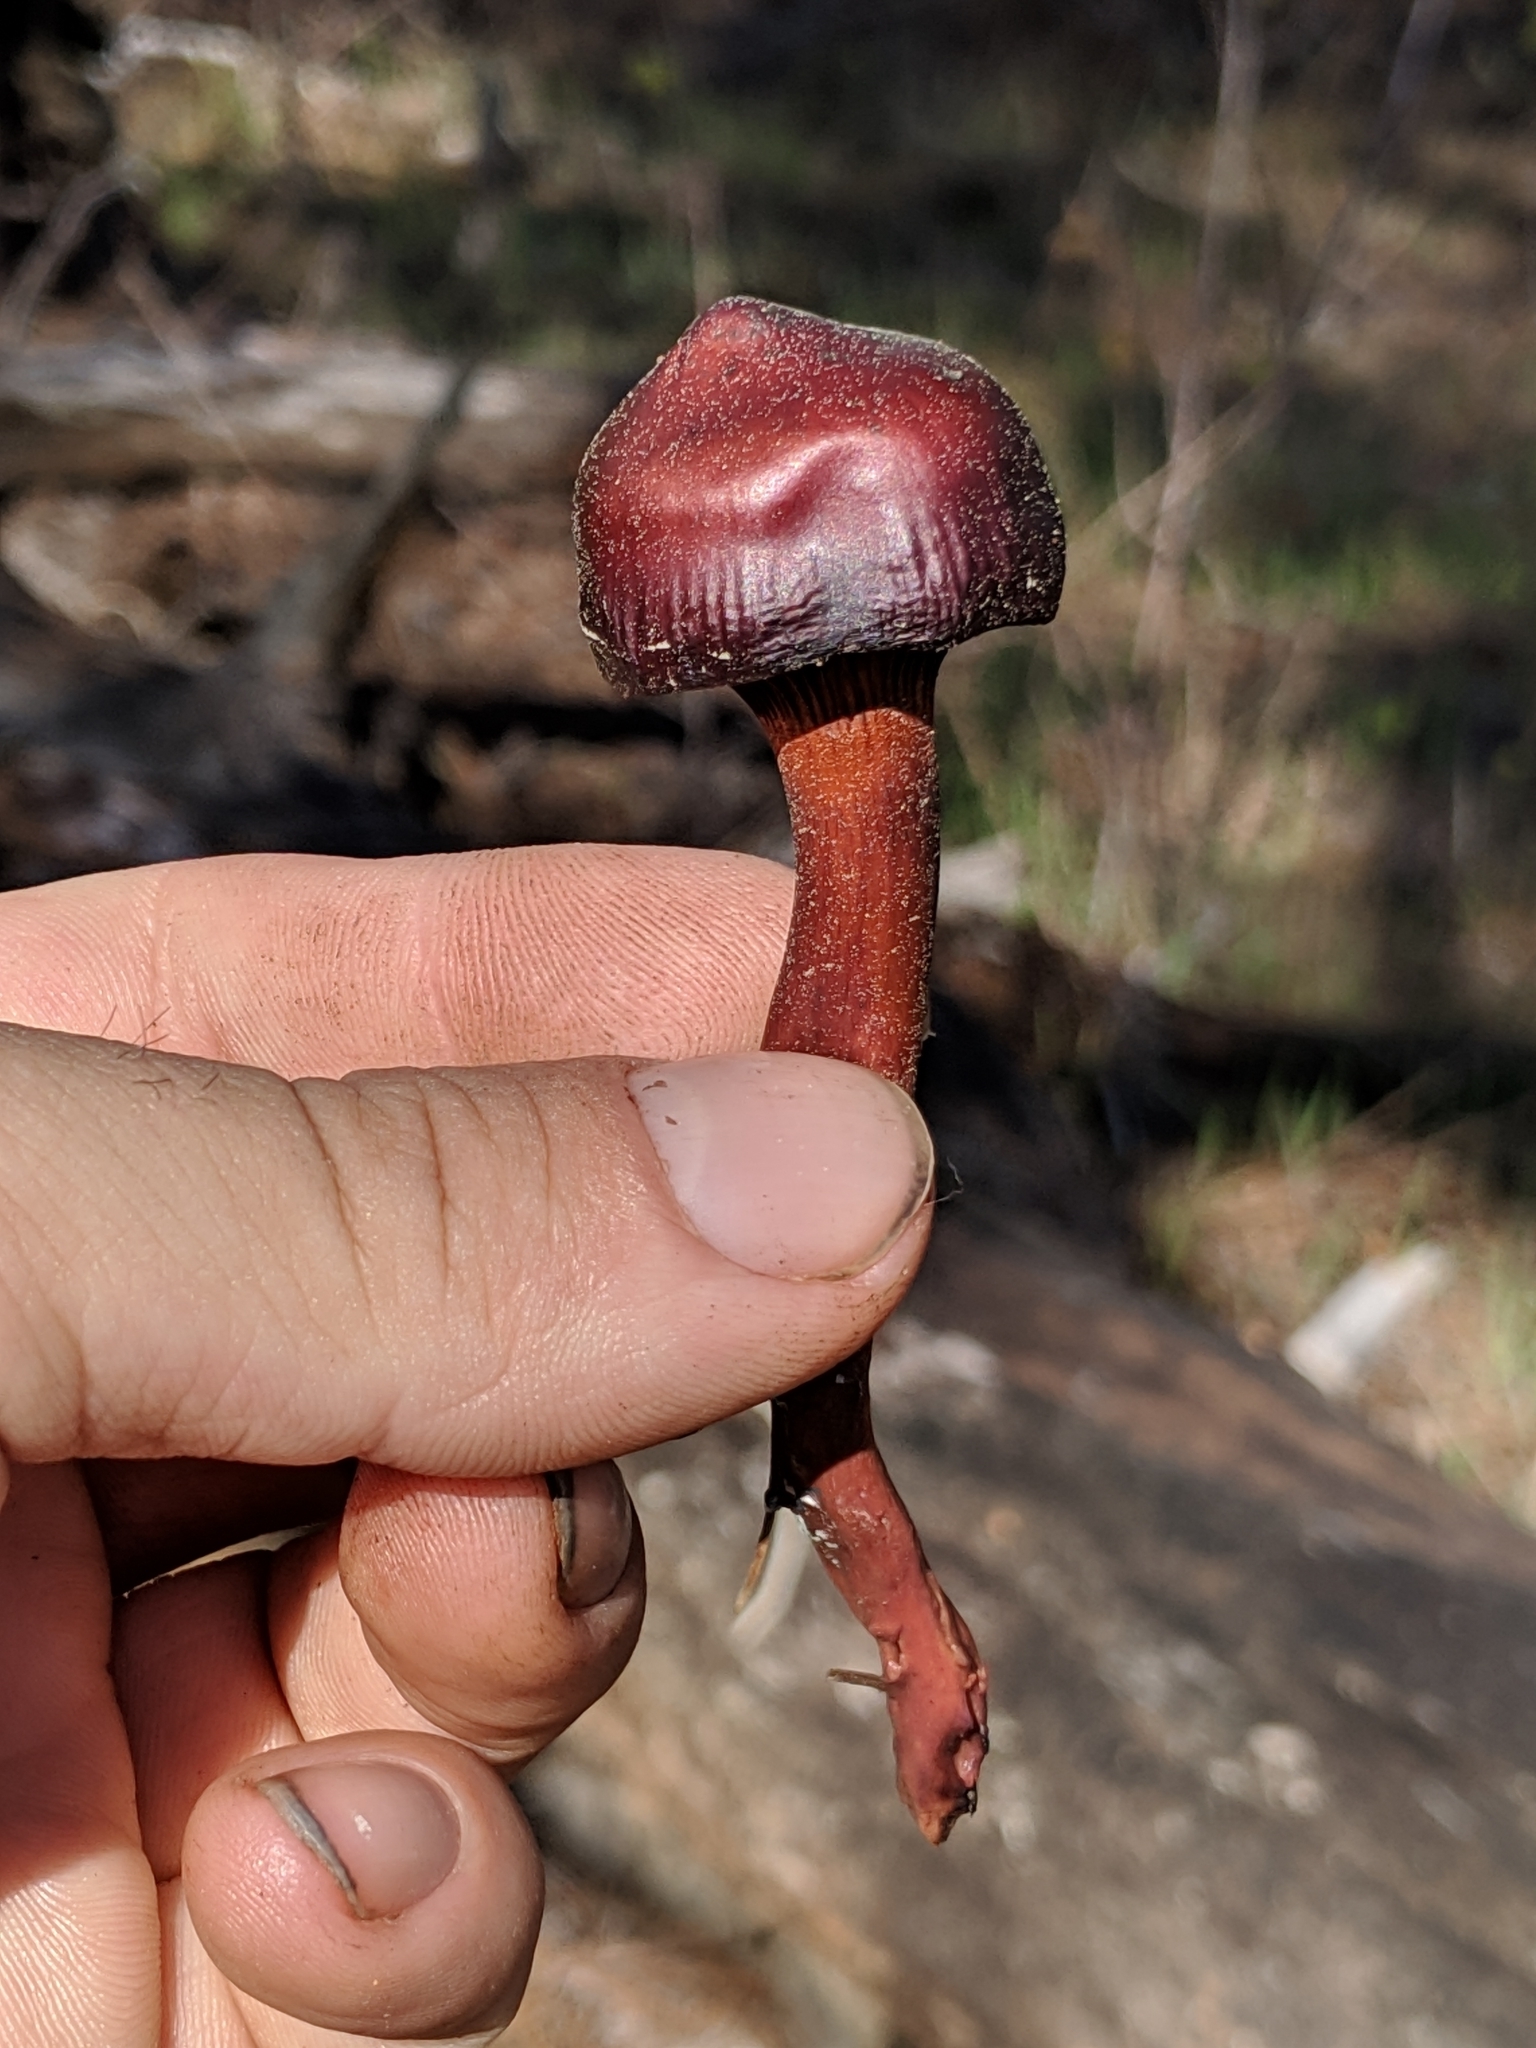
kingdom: Fungi
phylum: Basidiomycota
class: Agaricomycetes
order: Boletales
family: Gomphidiaceae
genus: Chroogomphus
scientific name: Chroogomphus vinicolor
